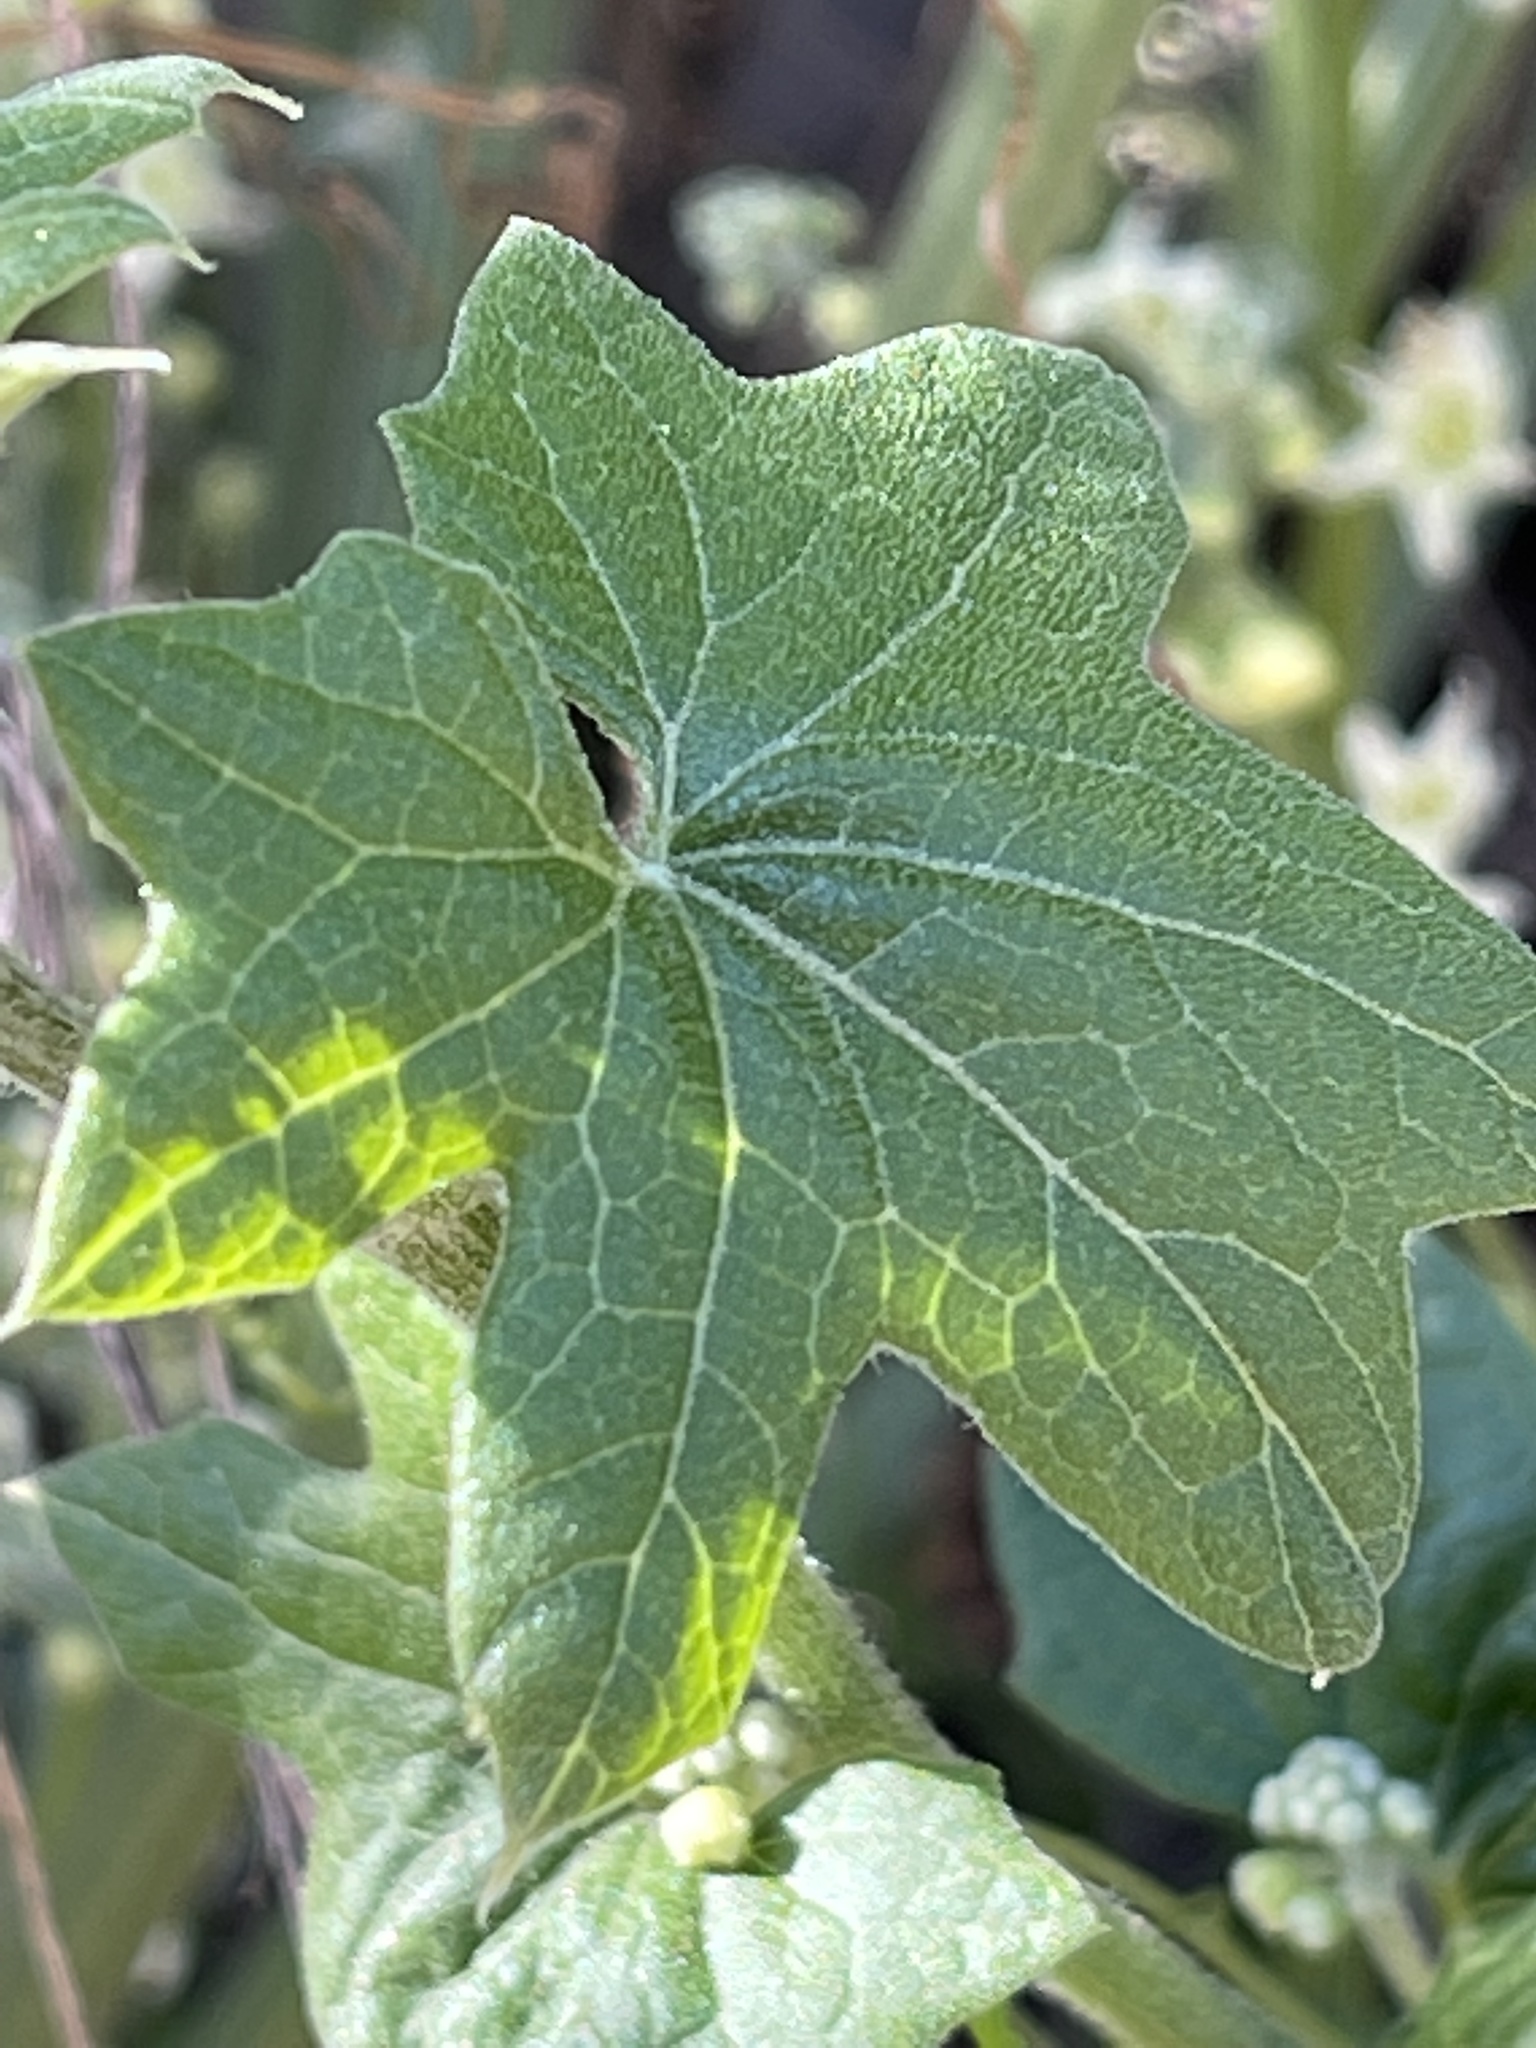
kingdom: Plantae
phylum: Tracheophyta
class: Magnoliopsida
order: Cucurbitales
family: Cucurbitaceae
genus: Marah
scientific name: Marah fabacea
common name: California manroot
